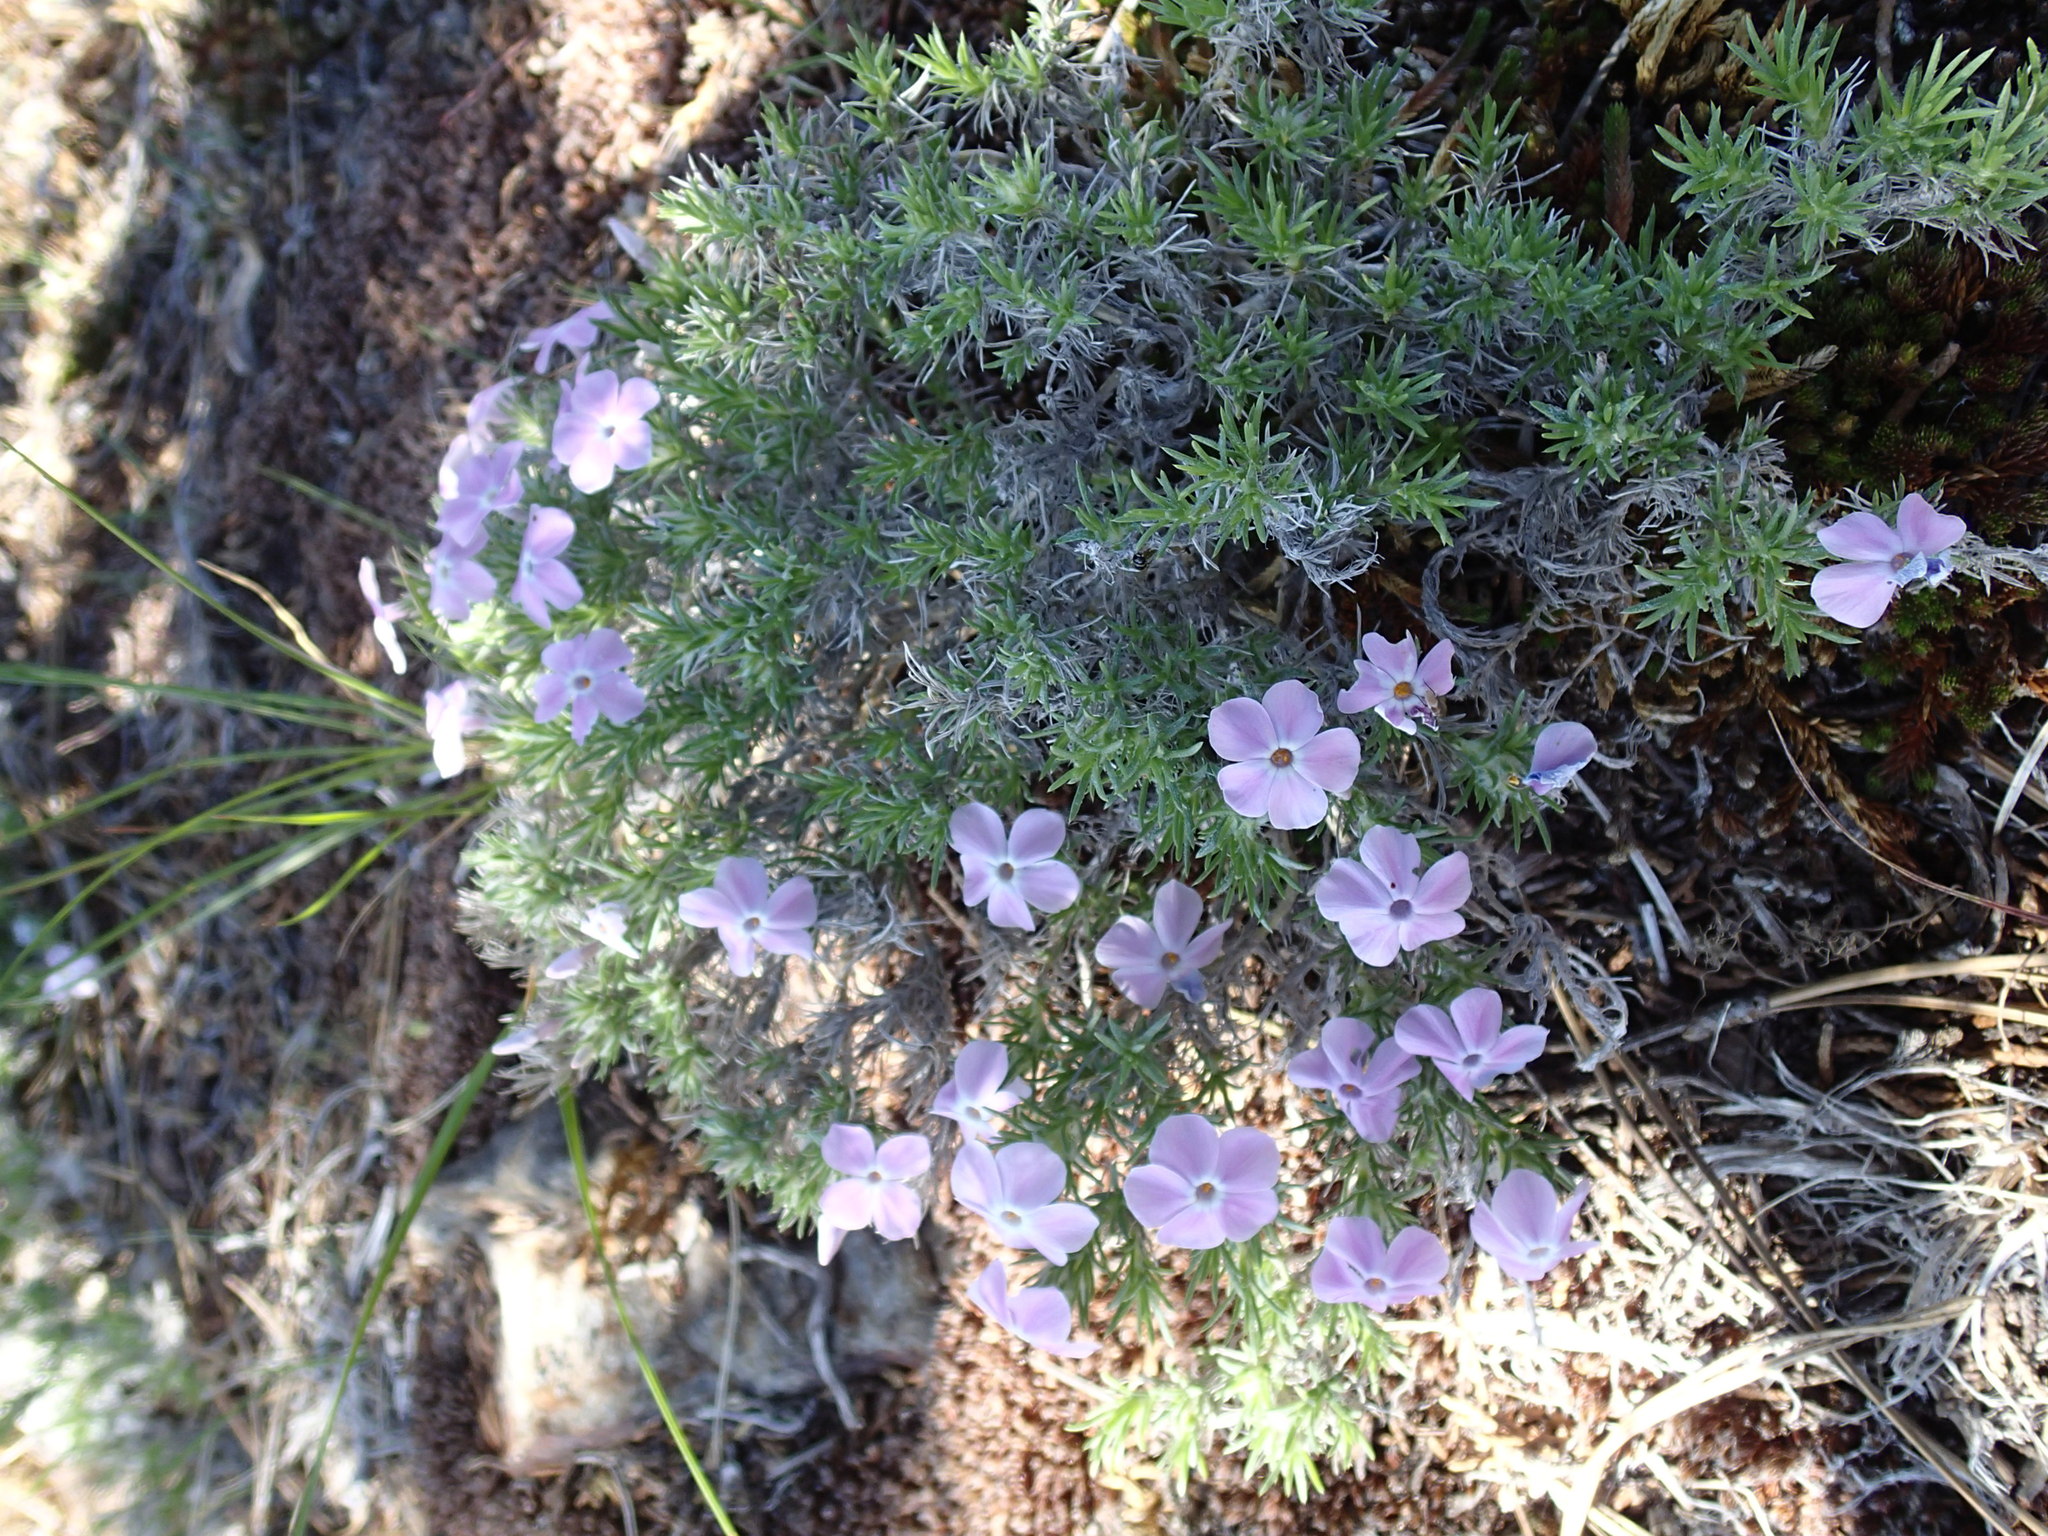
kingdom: Plantae
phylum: Tracheophyta
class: Magnoliopsida
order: Ericales
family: Polemoniaceae
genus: Phlox
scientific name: Phlox diffusa
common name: Mat phlox
